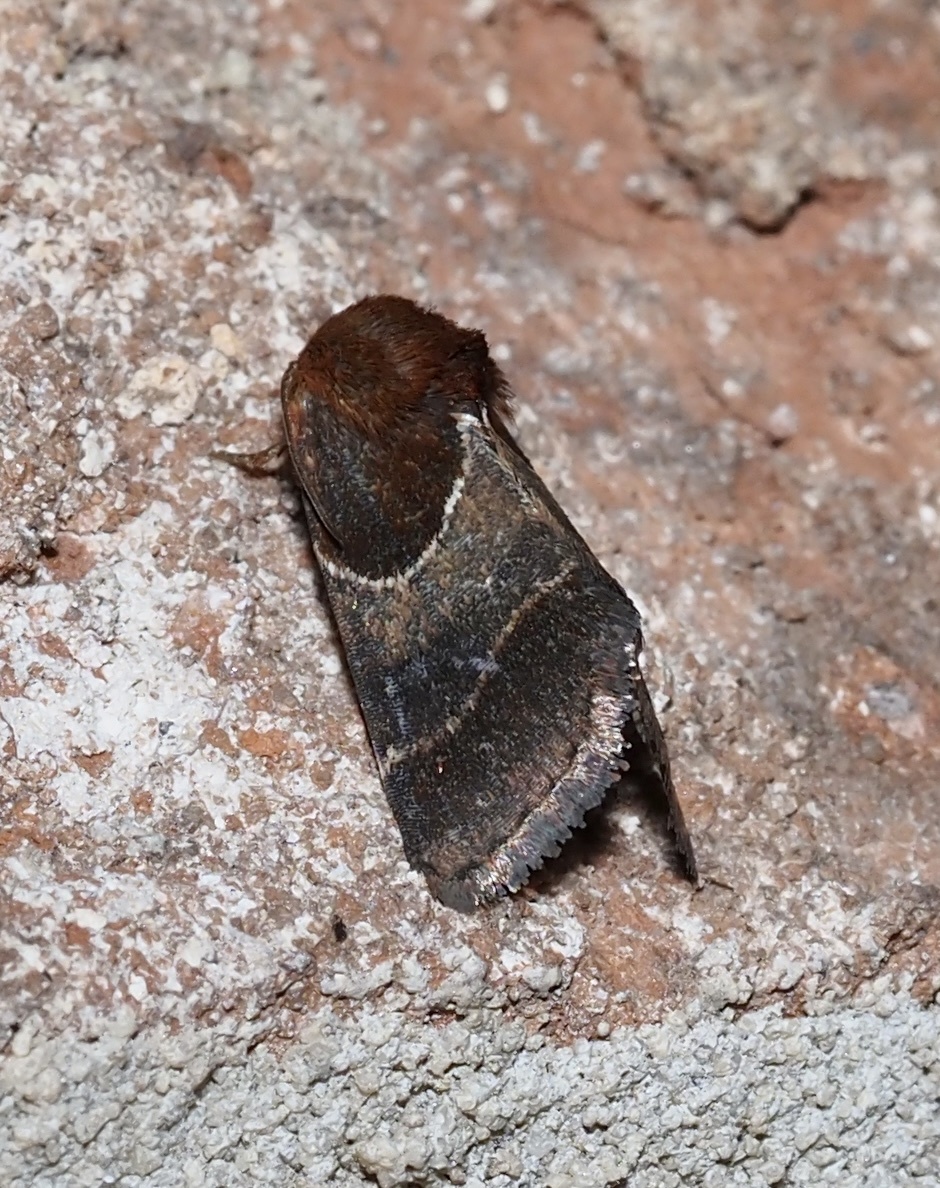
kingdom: Animalia
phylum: Arthropoda
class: Insecta
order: Lepidoptera
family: Noctuidae
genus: Schinia
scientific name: Schinia arcigera
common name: Arcigera flower moth
